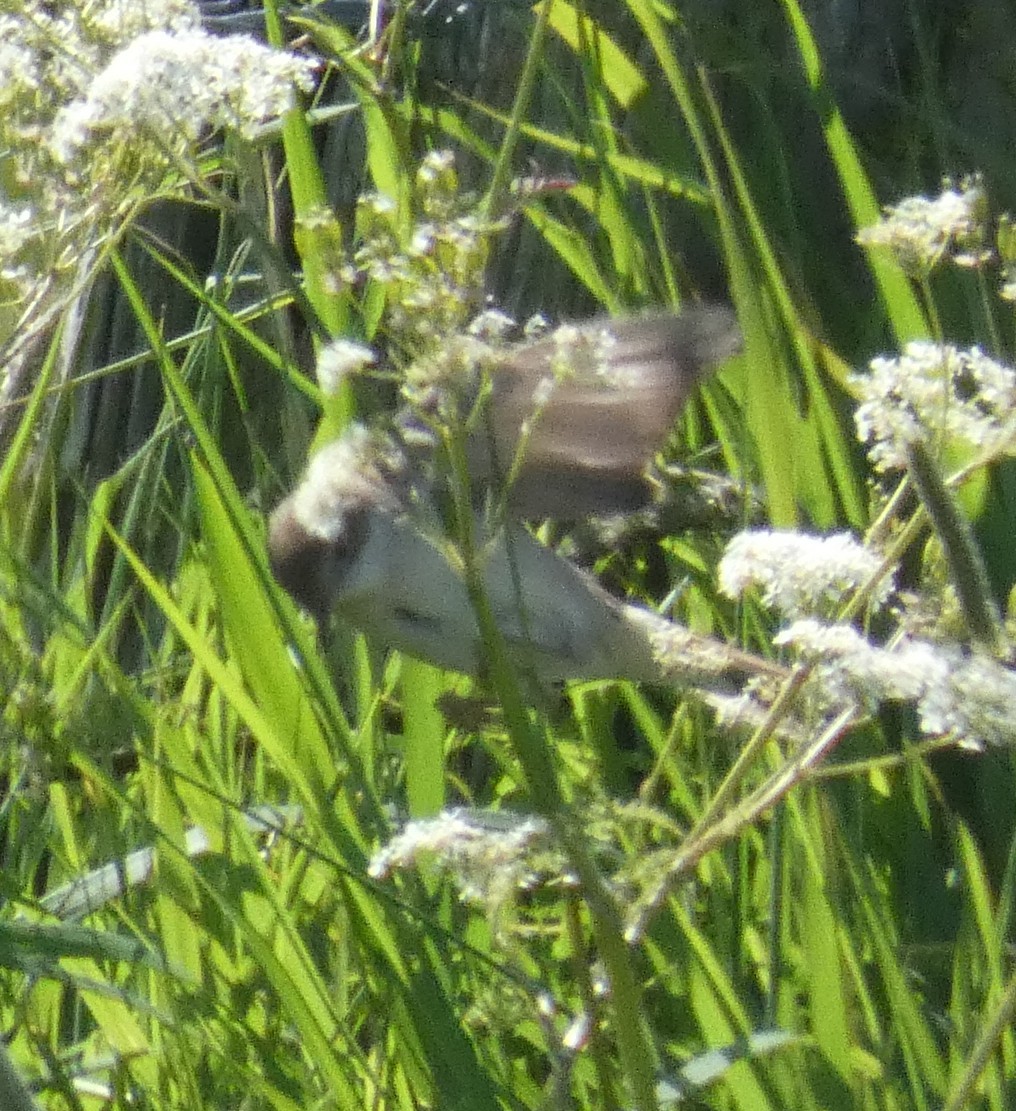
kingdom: Animalia
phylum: Chordata
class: Aves
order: Passeriformes
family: Sylviidae
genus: Sylvia
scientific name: Sylvia communis
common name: Common whitethroat
